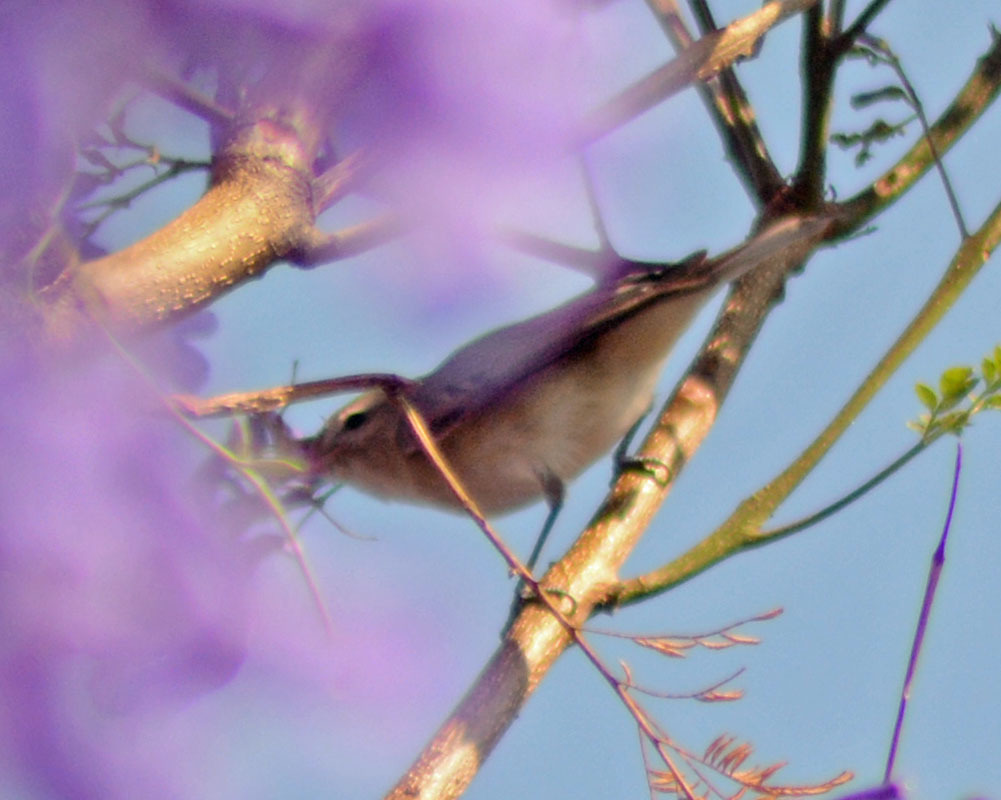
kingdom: Animalia
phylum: Chordata
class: Aves
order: Passeriformes
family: Vireonidae
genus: Vireo
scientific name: Vireo gilvus
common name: Warbling vireo
